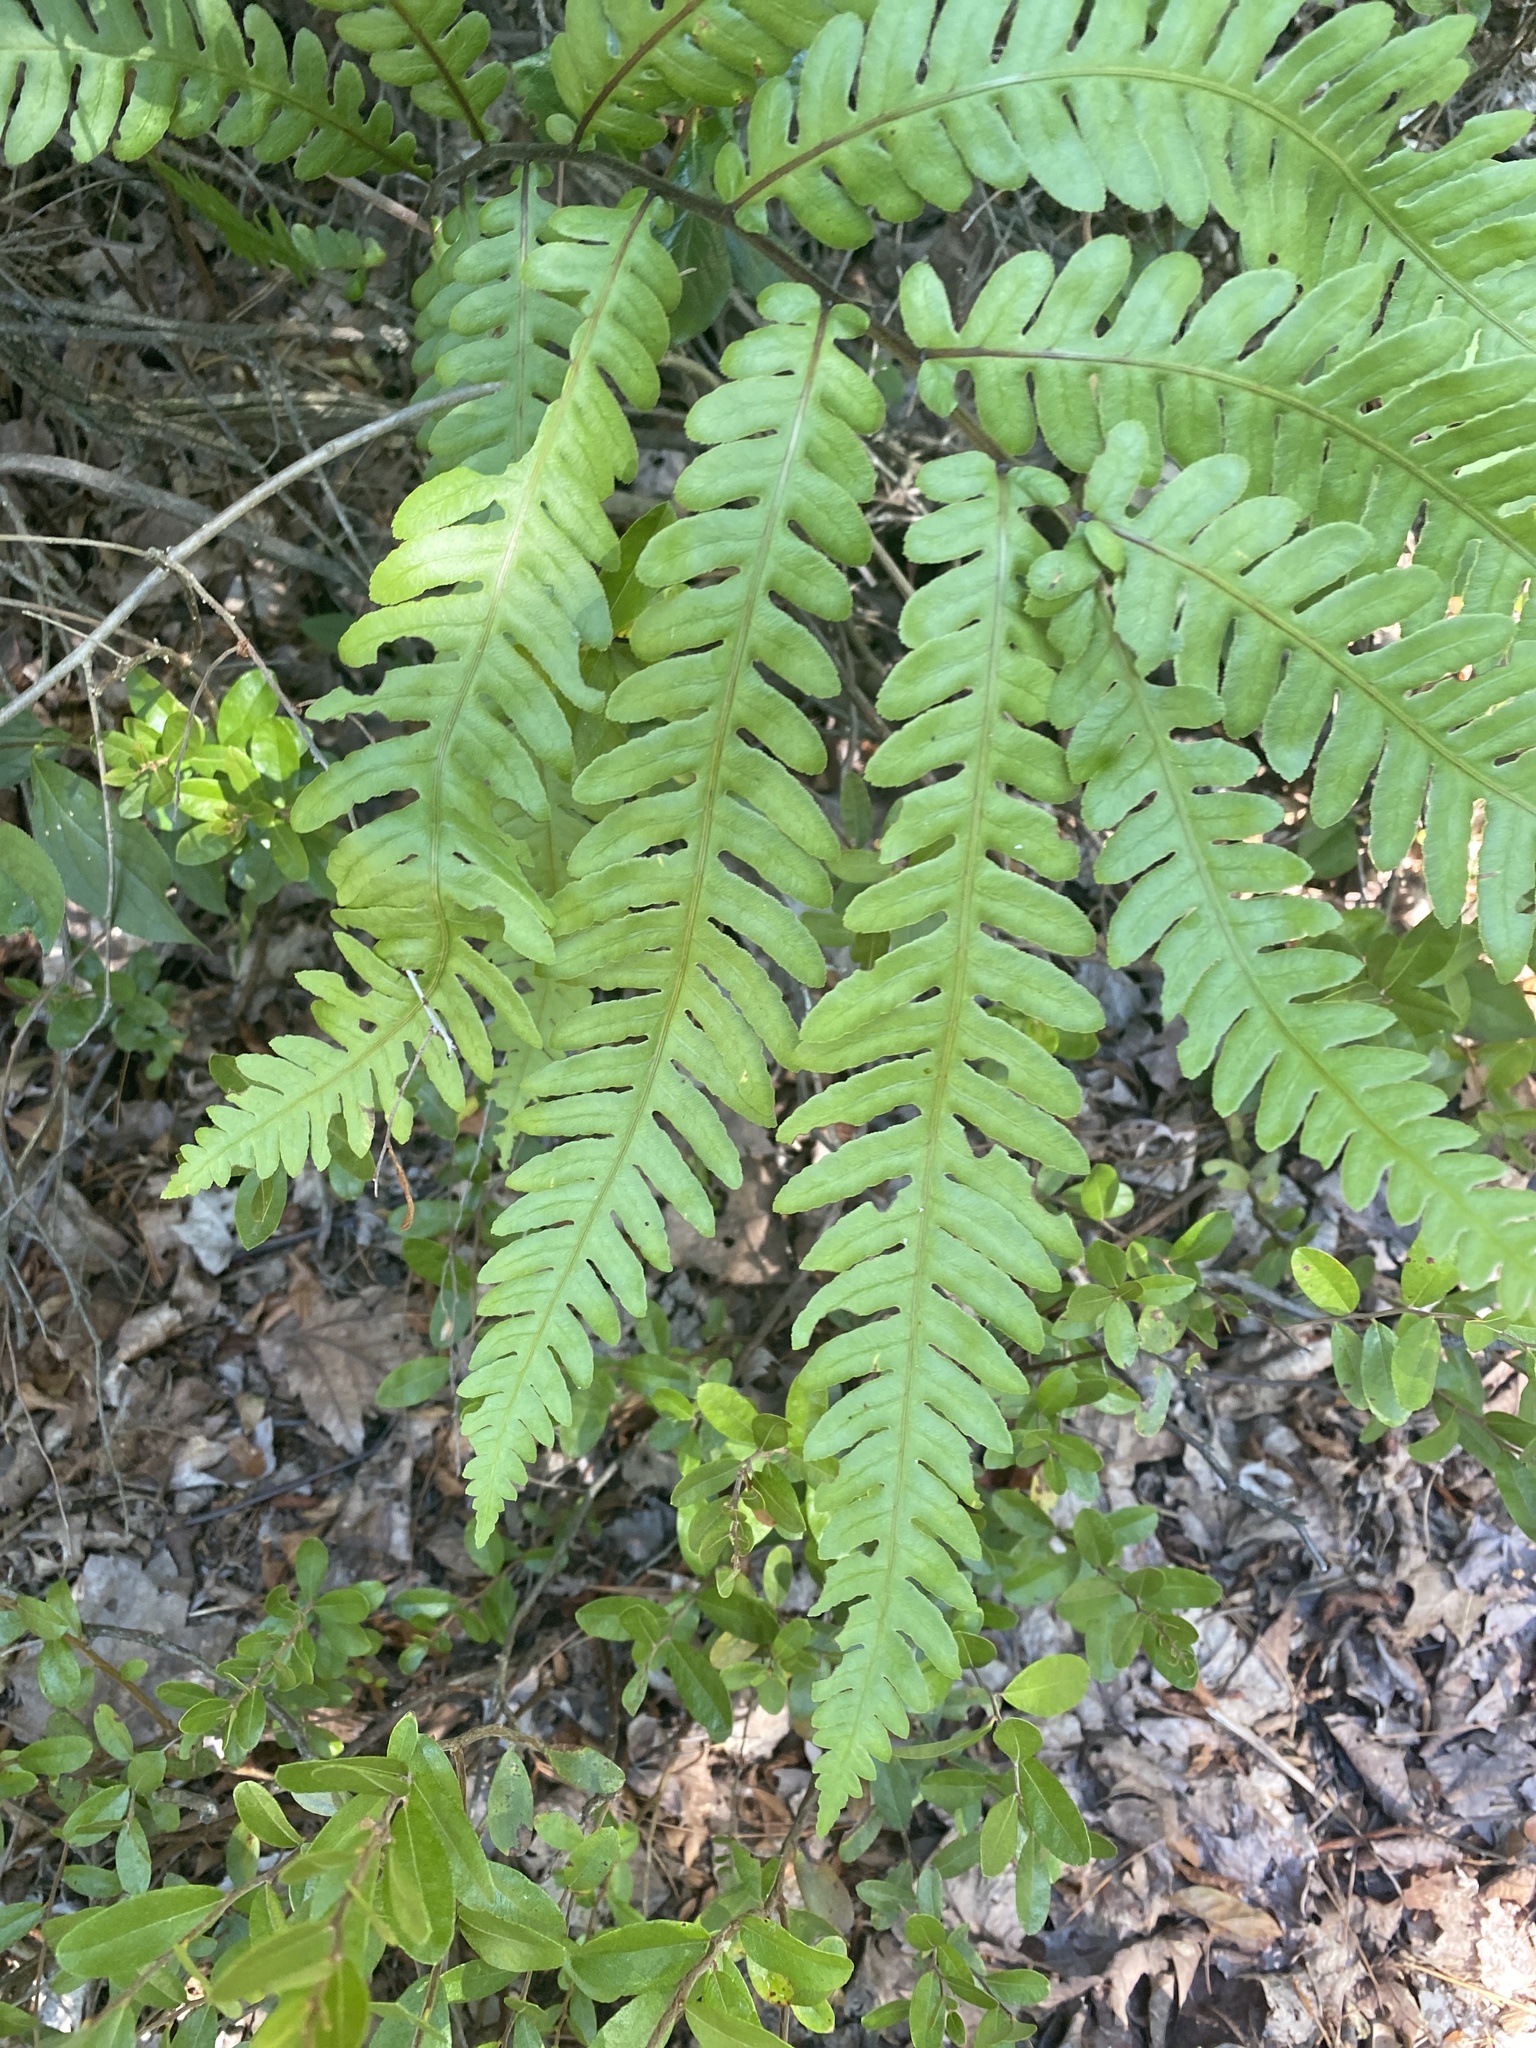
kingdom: Plantae
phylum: Tracheophyta
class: Polypodiopsida
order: Polypodiales
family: Blechnaceae
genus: Anchistea
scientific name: Anchistea virginica
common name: Virginia chain fern
